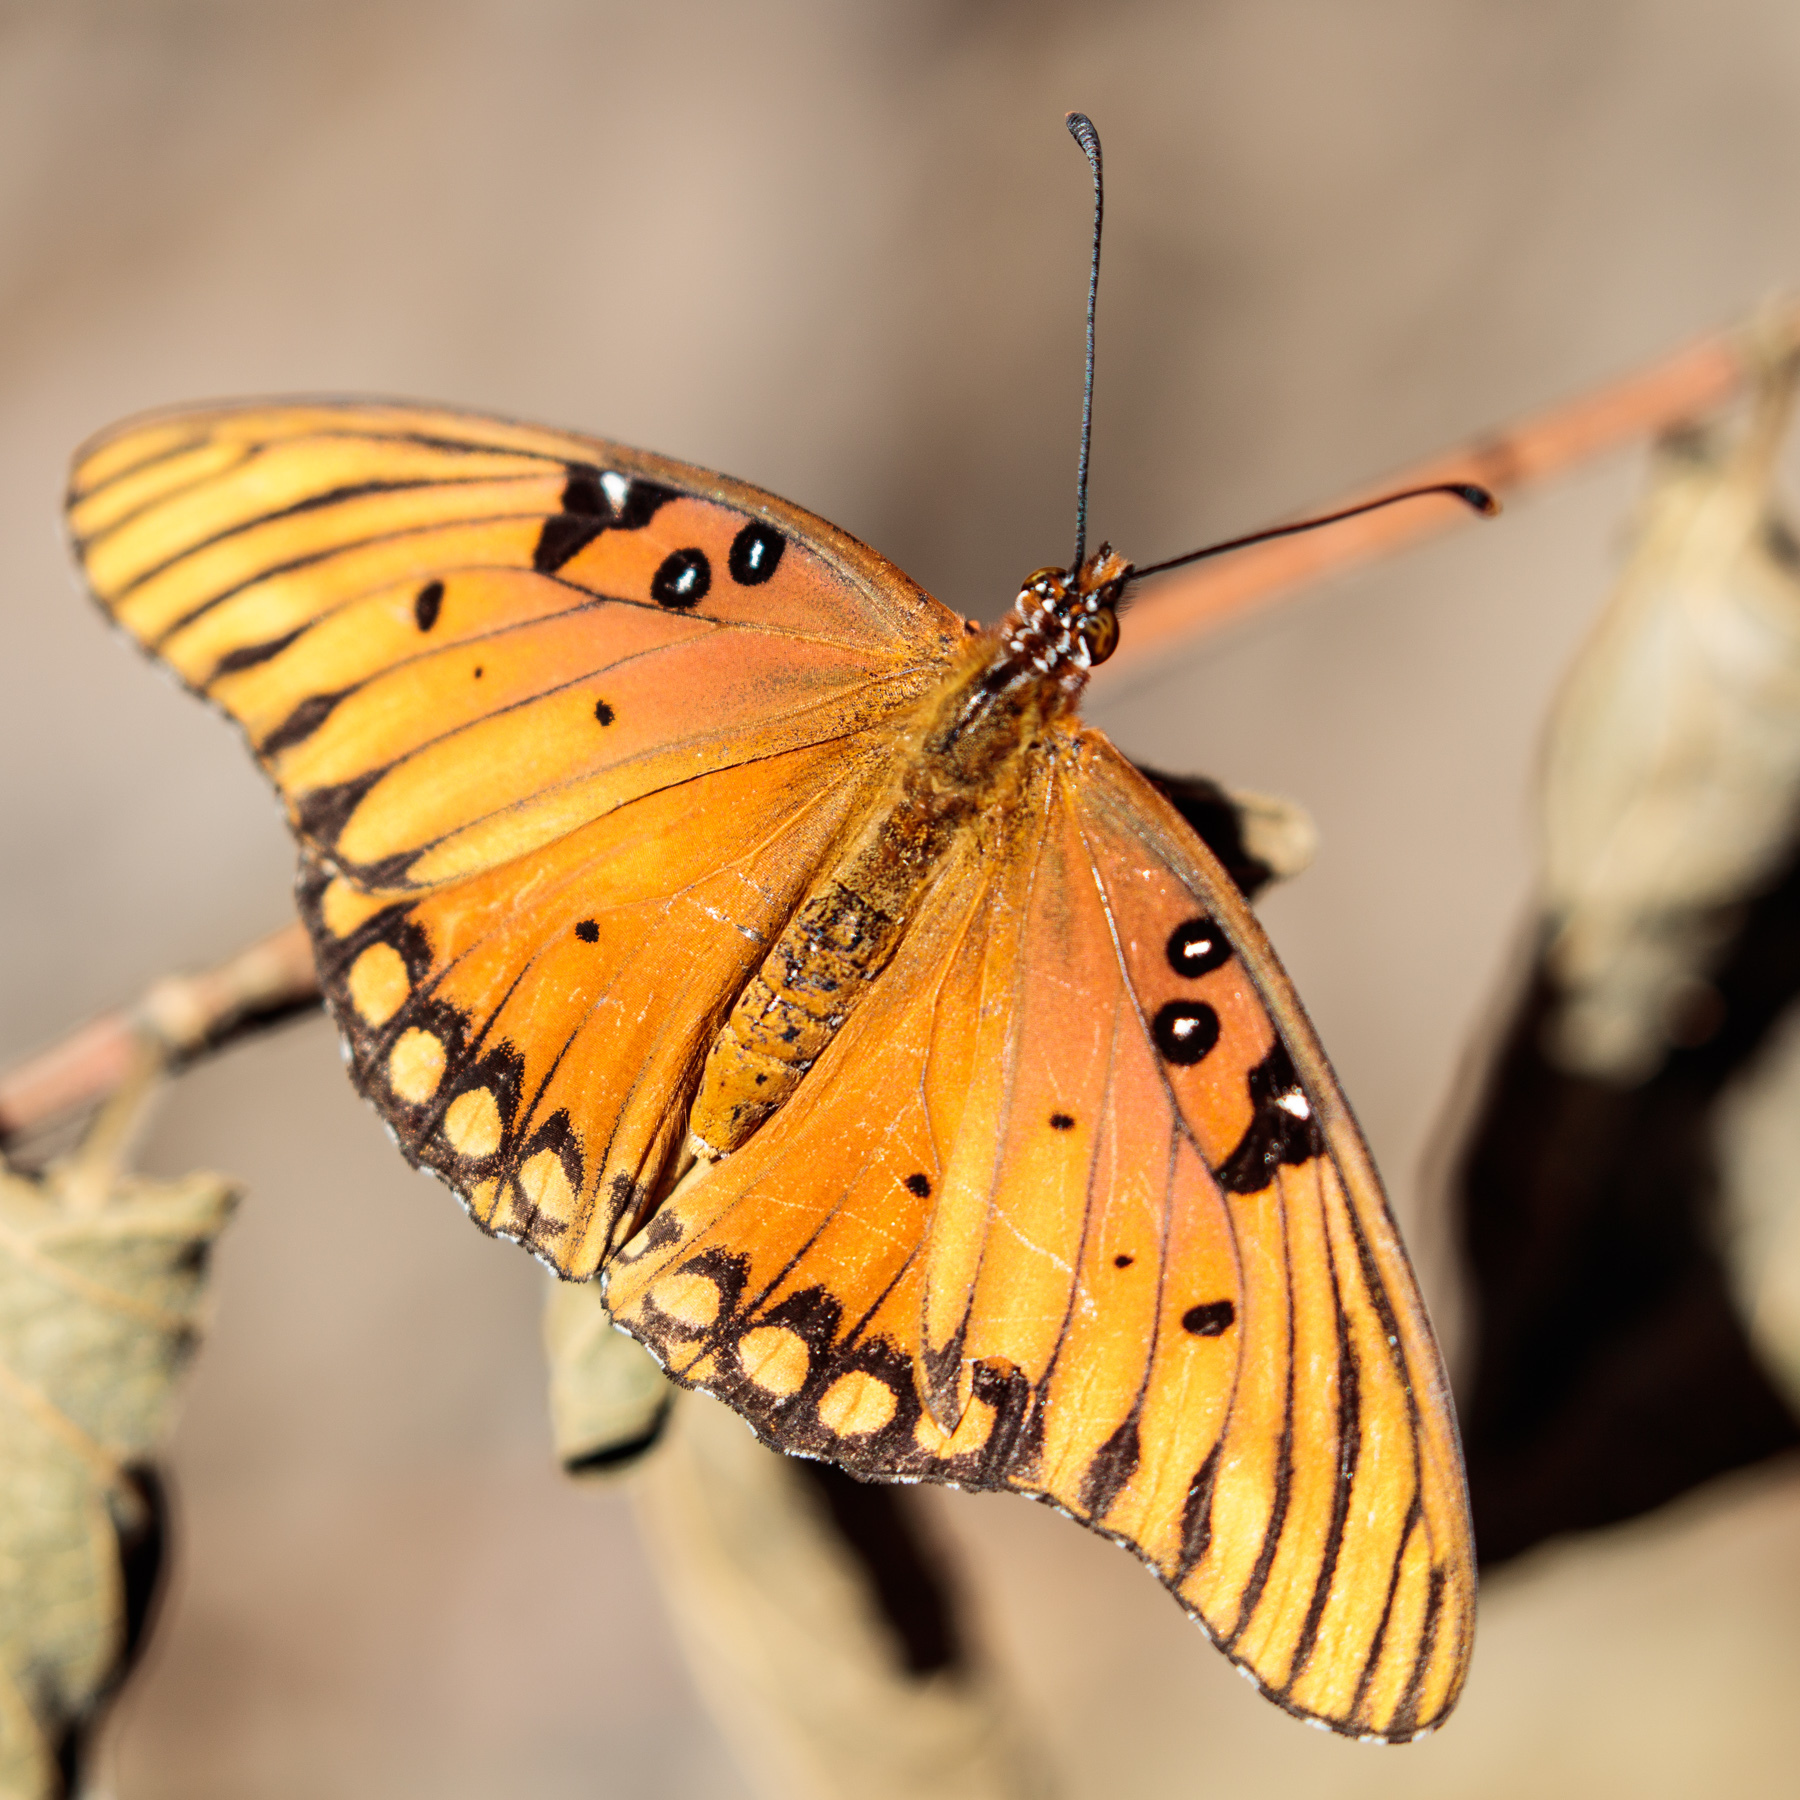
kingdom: Animalia
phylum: Arthropoda
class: Insecta
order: Lepidoptera
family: Nymphalidae
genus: Dione
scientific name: Dione vanillae
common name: Gulf fritillary
